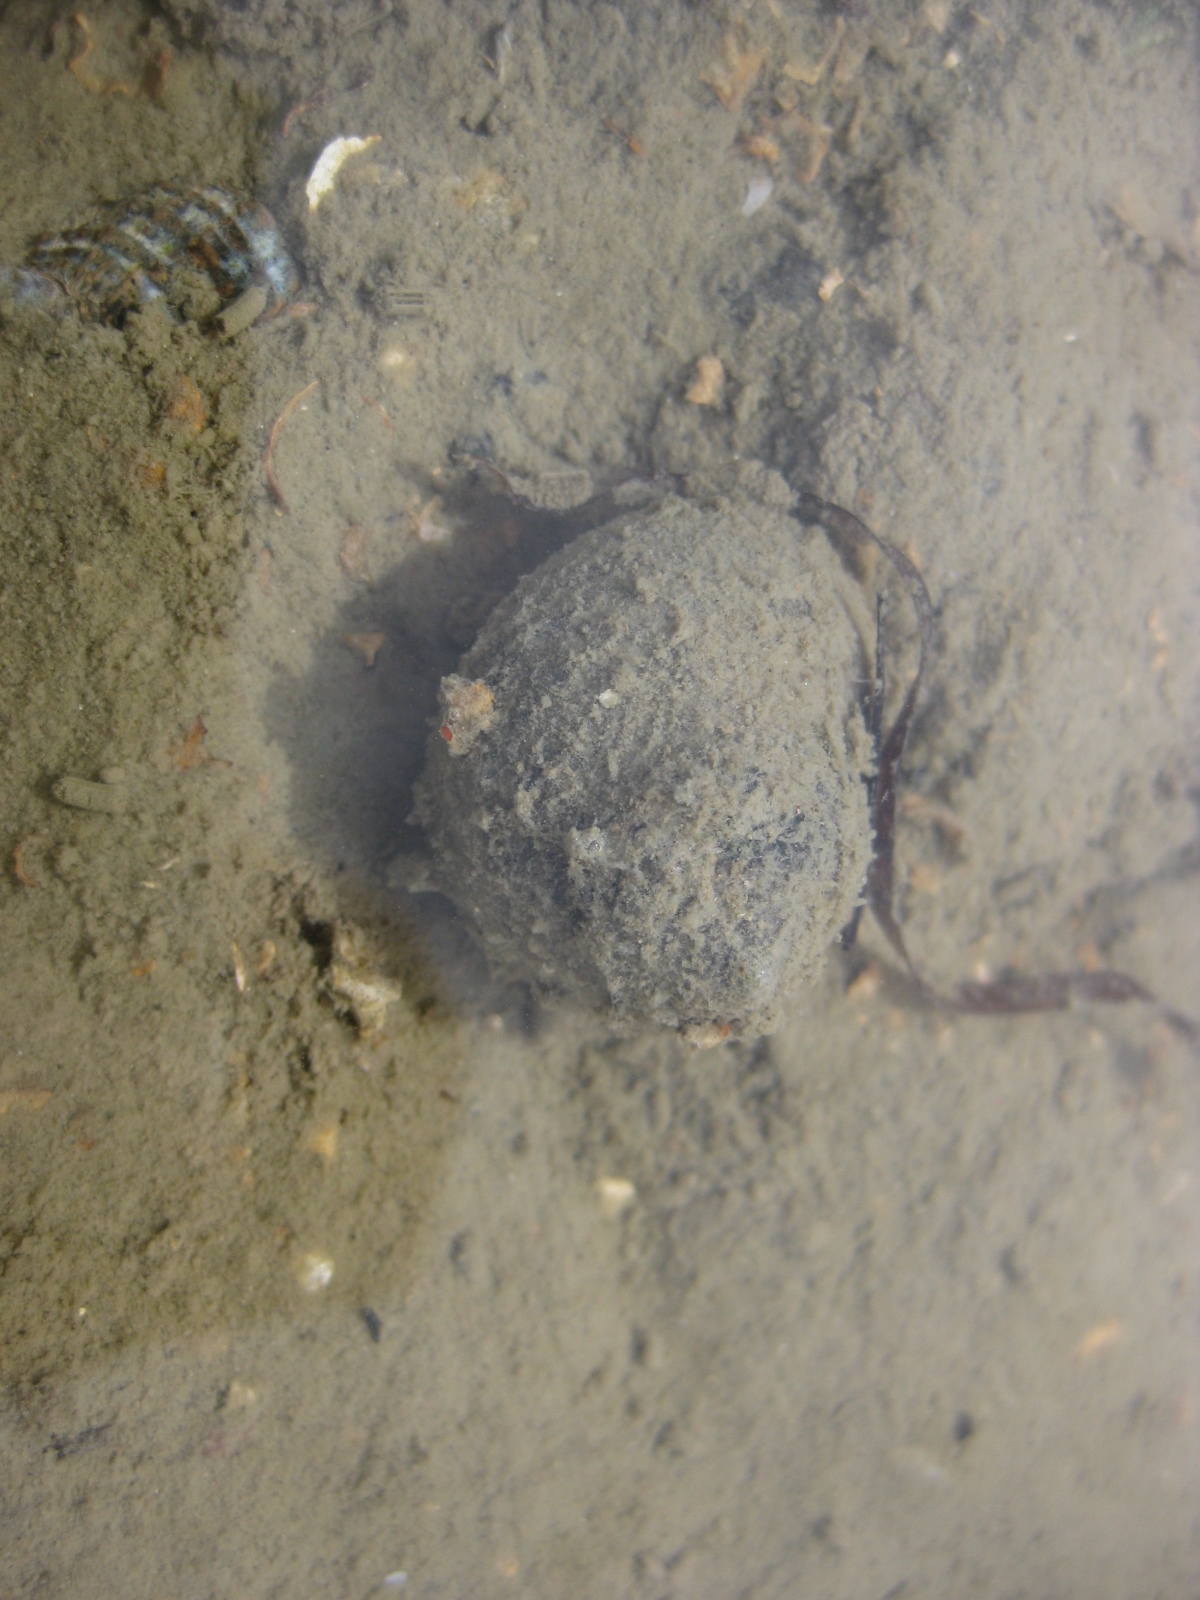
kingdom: Animalia
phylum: Mollusca
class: Gastropoda
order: Trochida
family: Trochidae
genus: Diloma
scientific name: Diloma subrostratum
